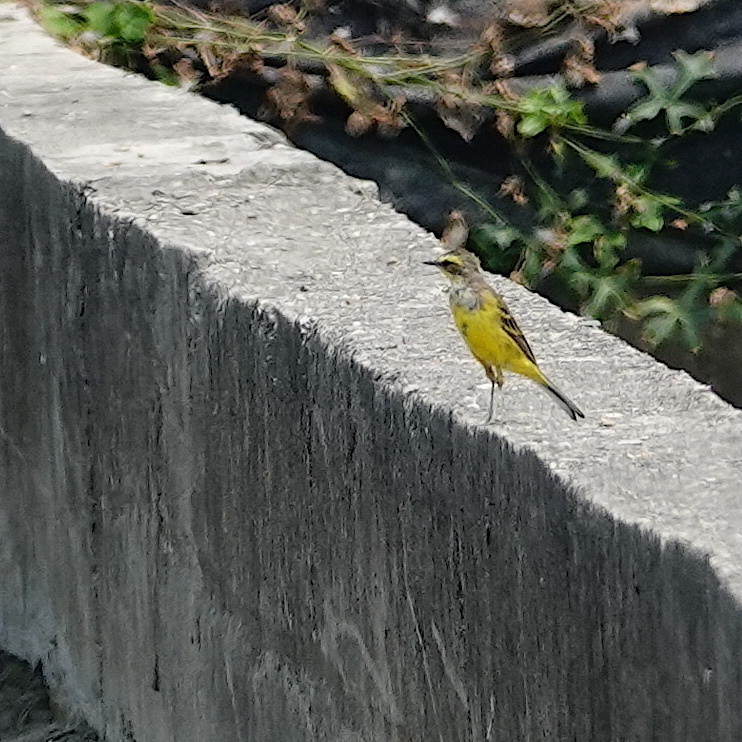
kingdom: Animalia
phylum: Chordata
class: Aves
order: Passeriformes
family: Motacillidae
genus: Motacilla
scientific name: Motacilla tschutschensis
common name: Eastern yellow wagtail
